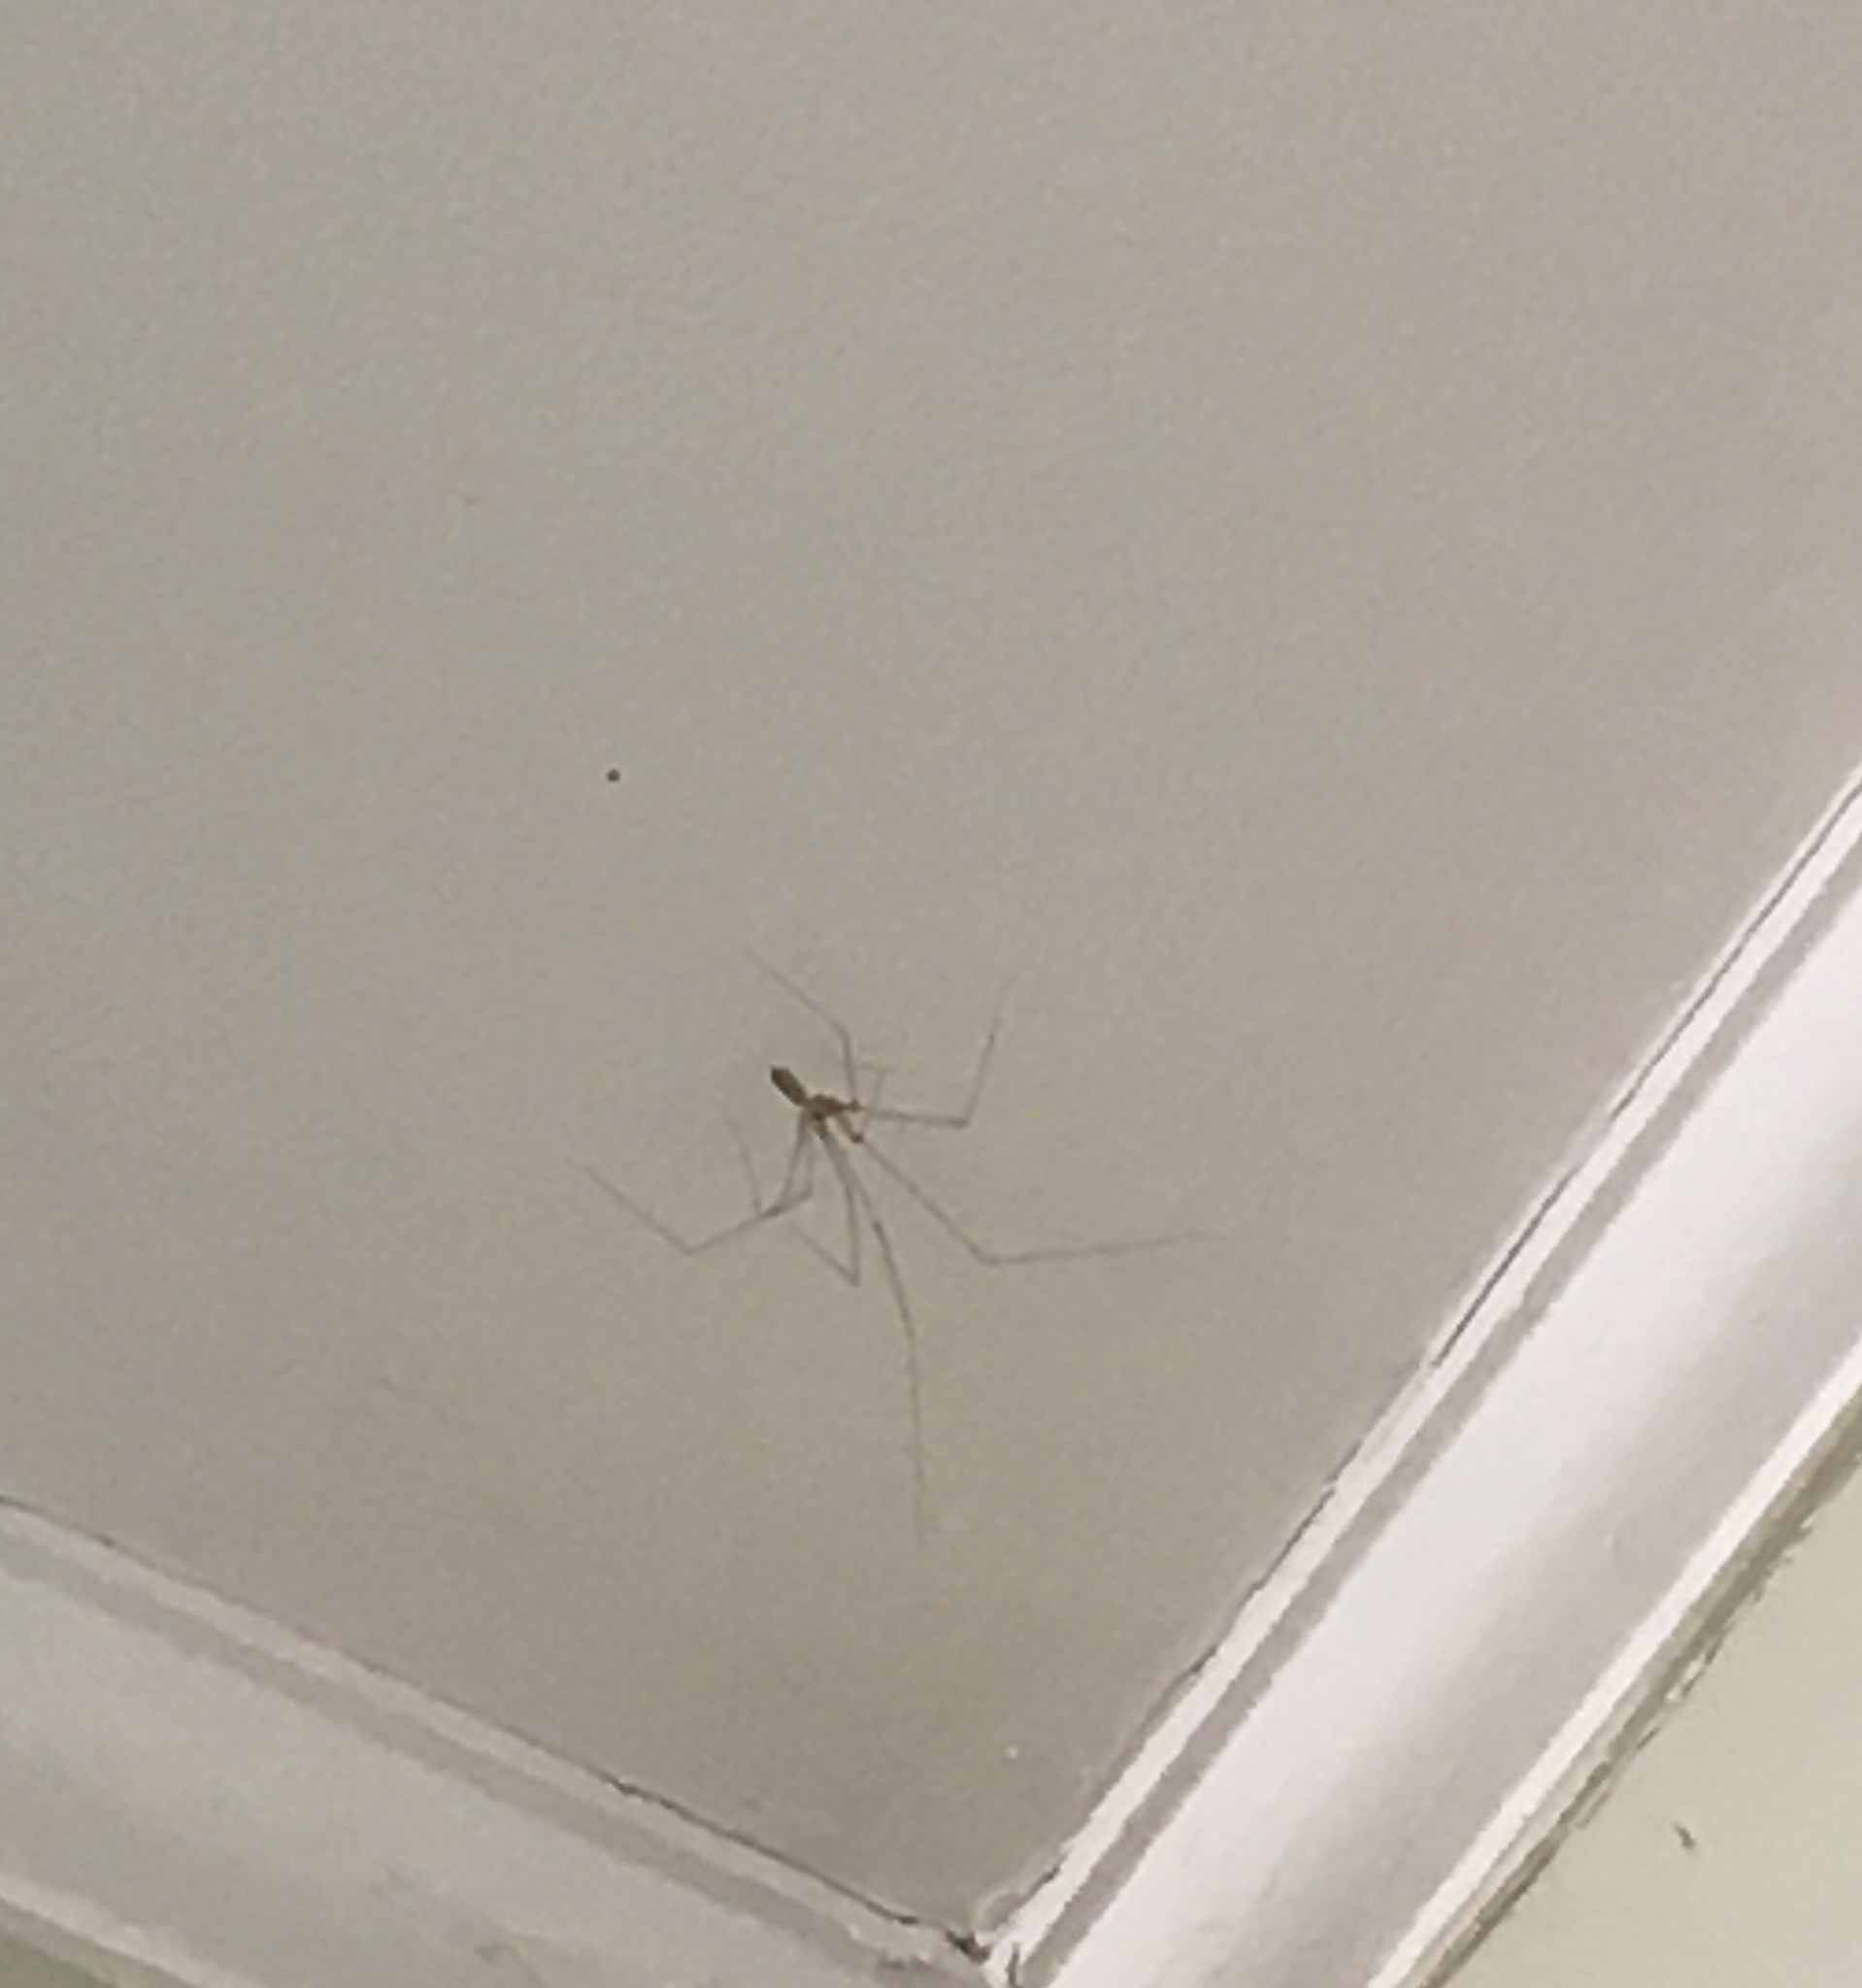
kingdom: Animalia
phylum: Arthropoda
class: Arachnida
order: Araneae
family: Pholcidae
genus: Pholcus
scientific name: Pholcus phalangioides
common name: Longbodied cellar spider
